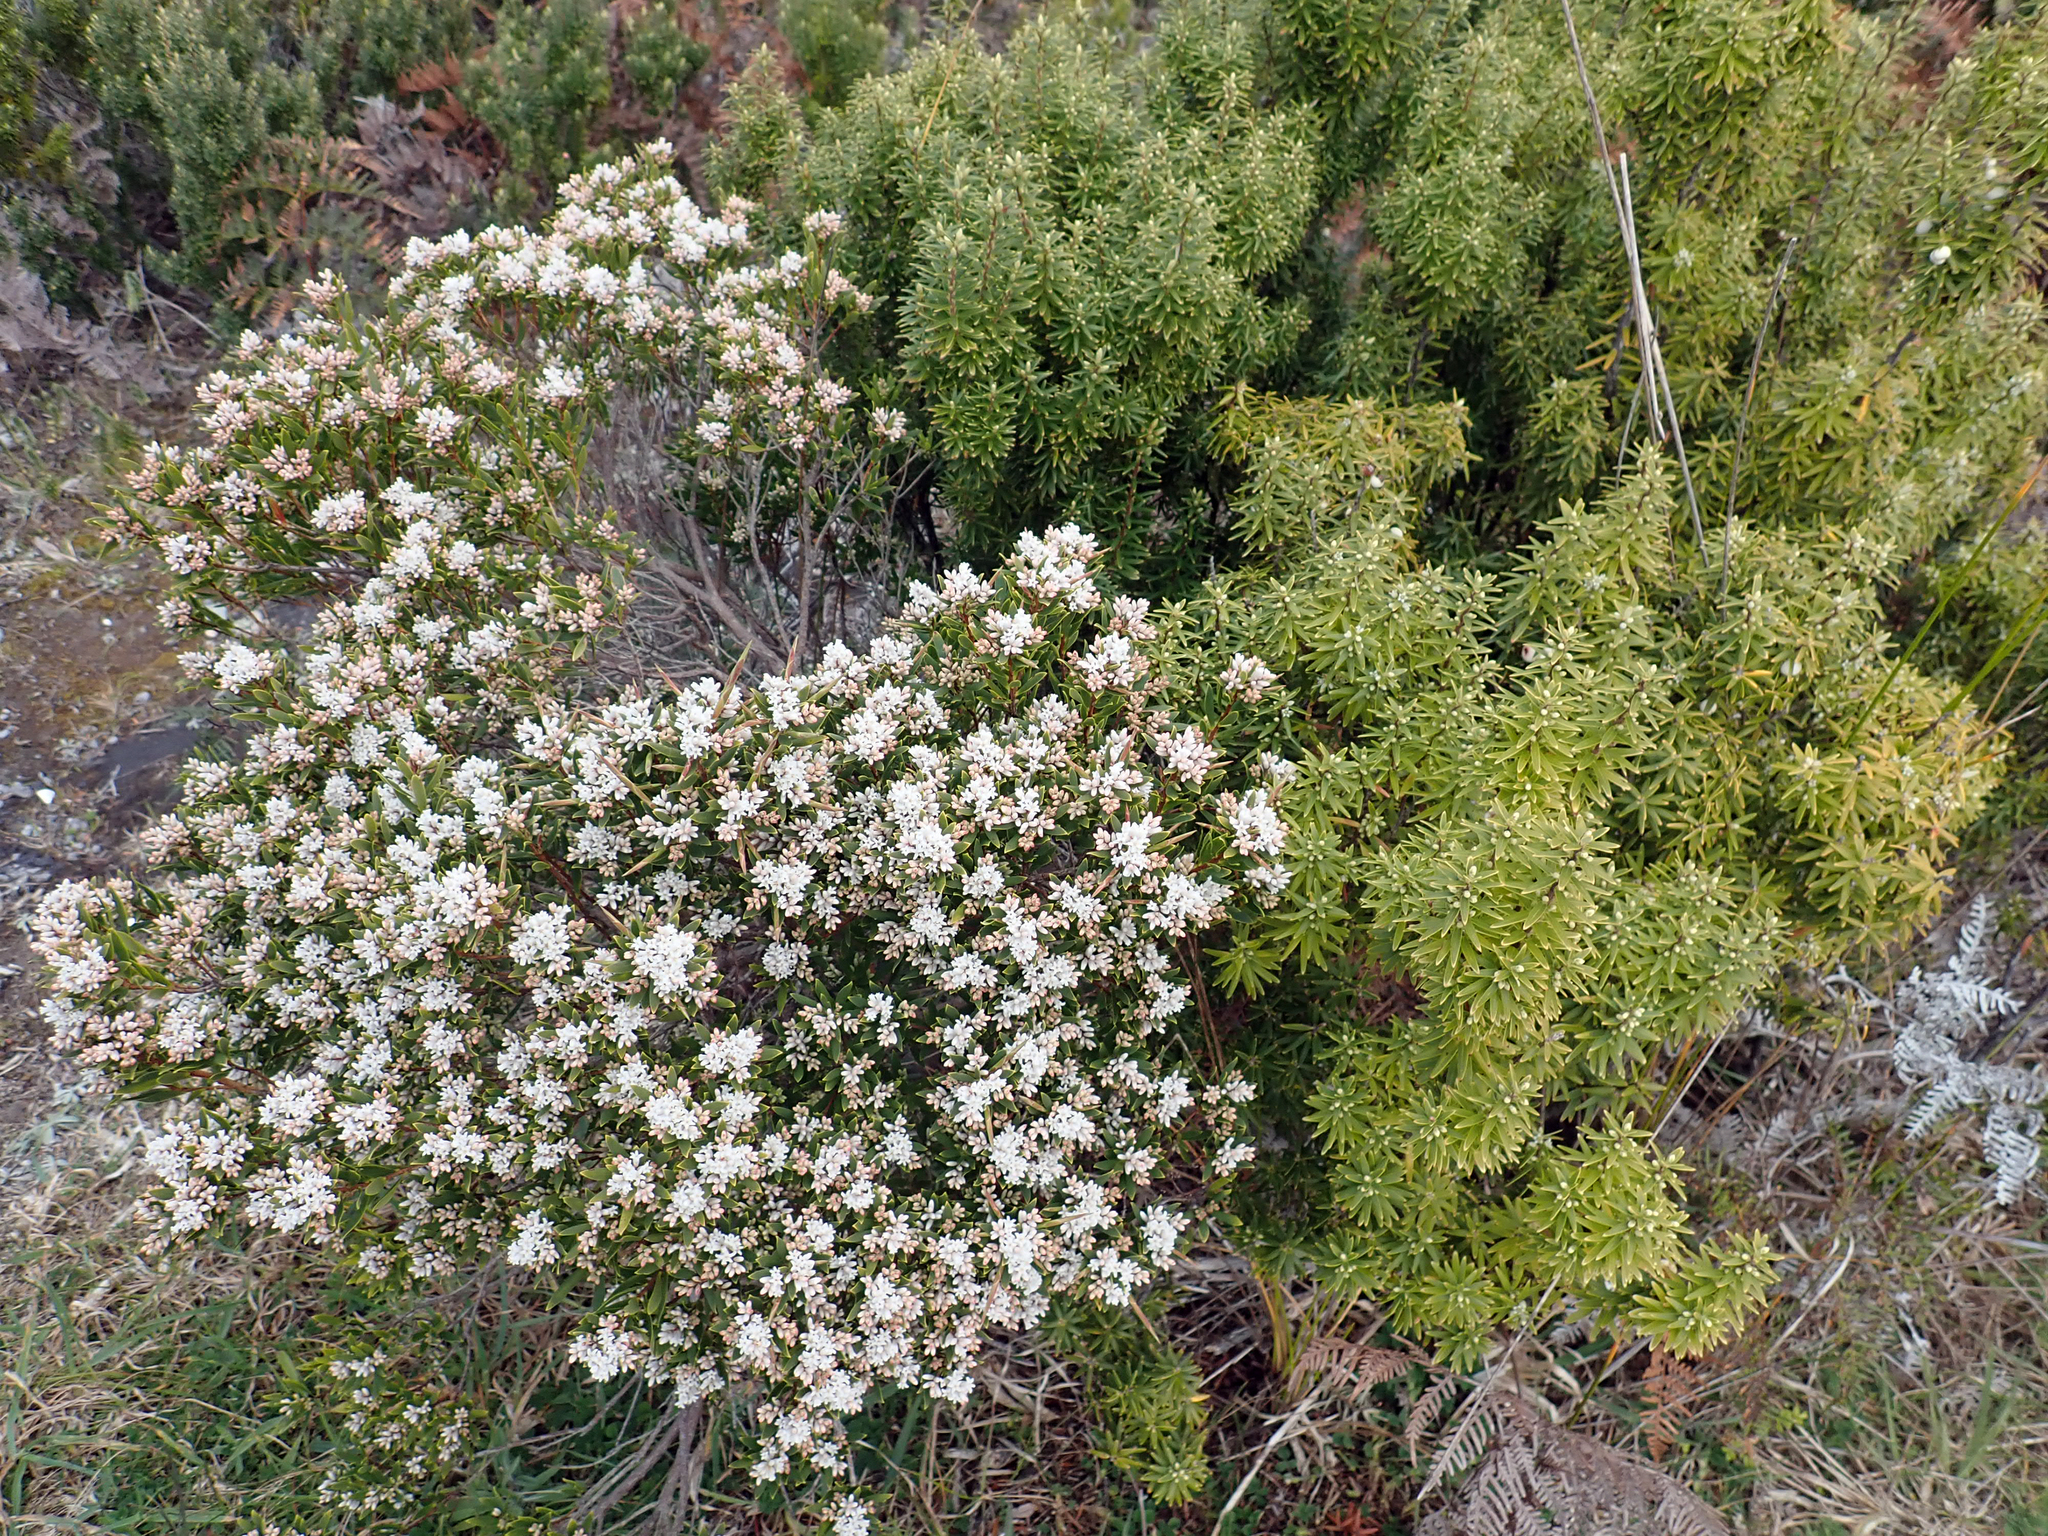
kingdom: Plantae
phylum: Tracheophyta
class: Magnoliopsida
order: Ericales
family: Ericaceae
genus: Leptecophylla
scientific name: Leptecophylla parvifolia
